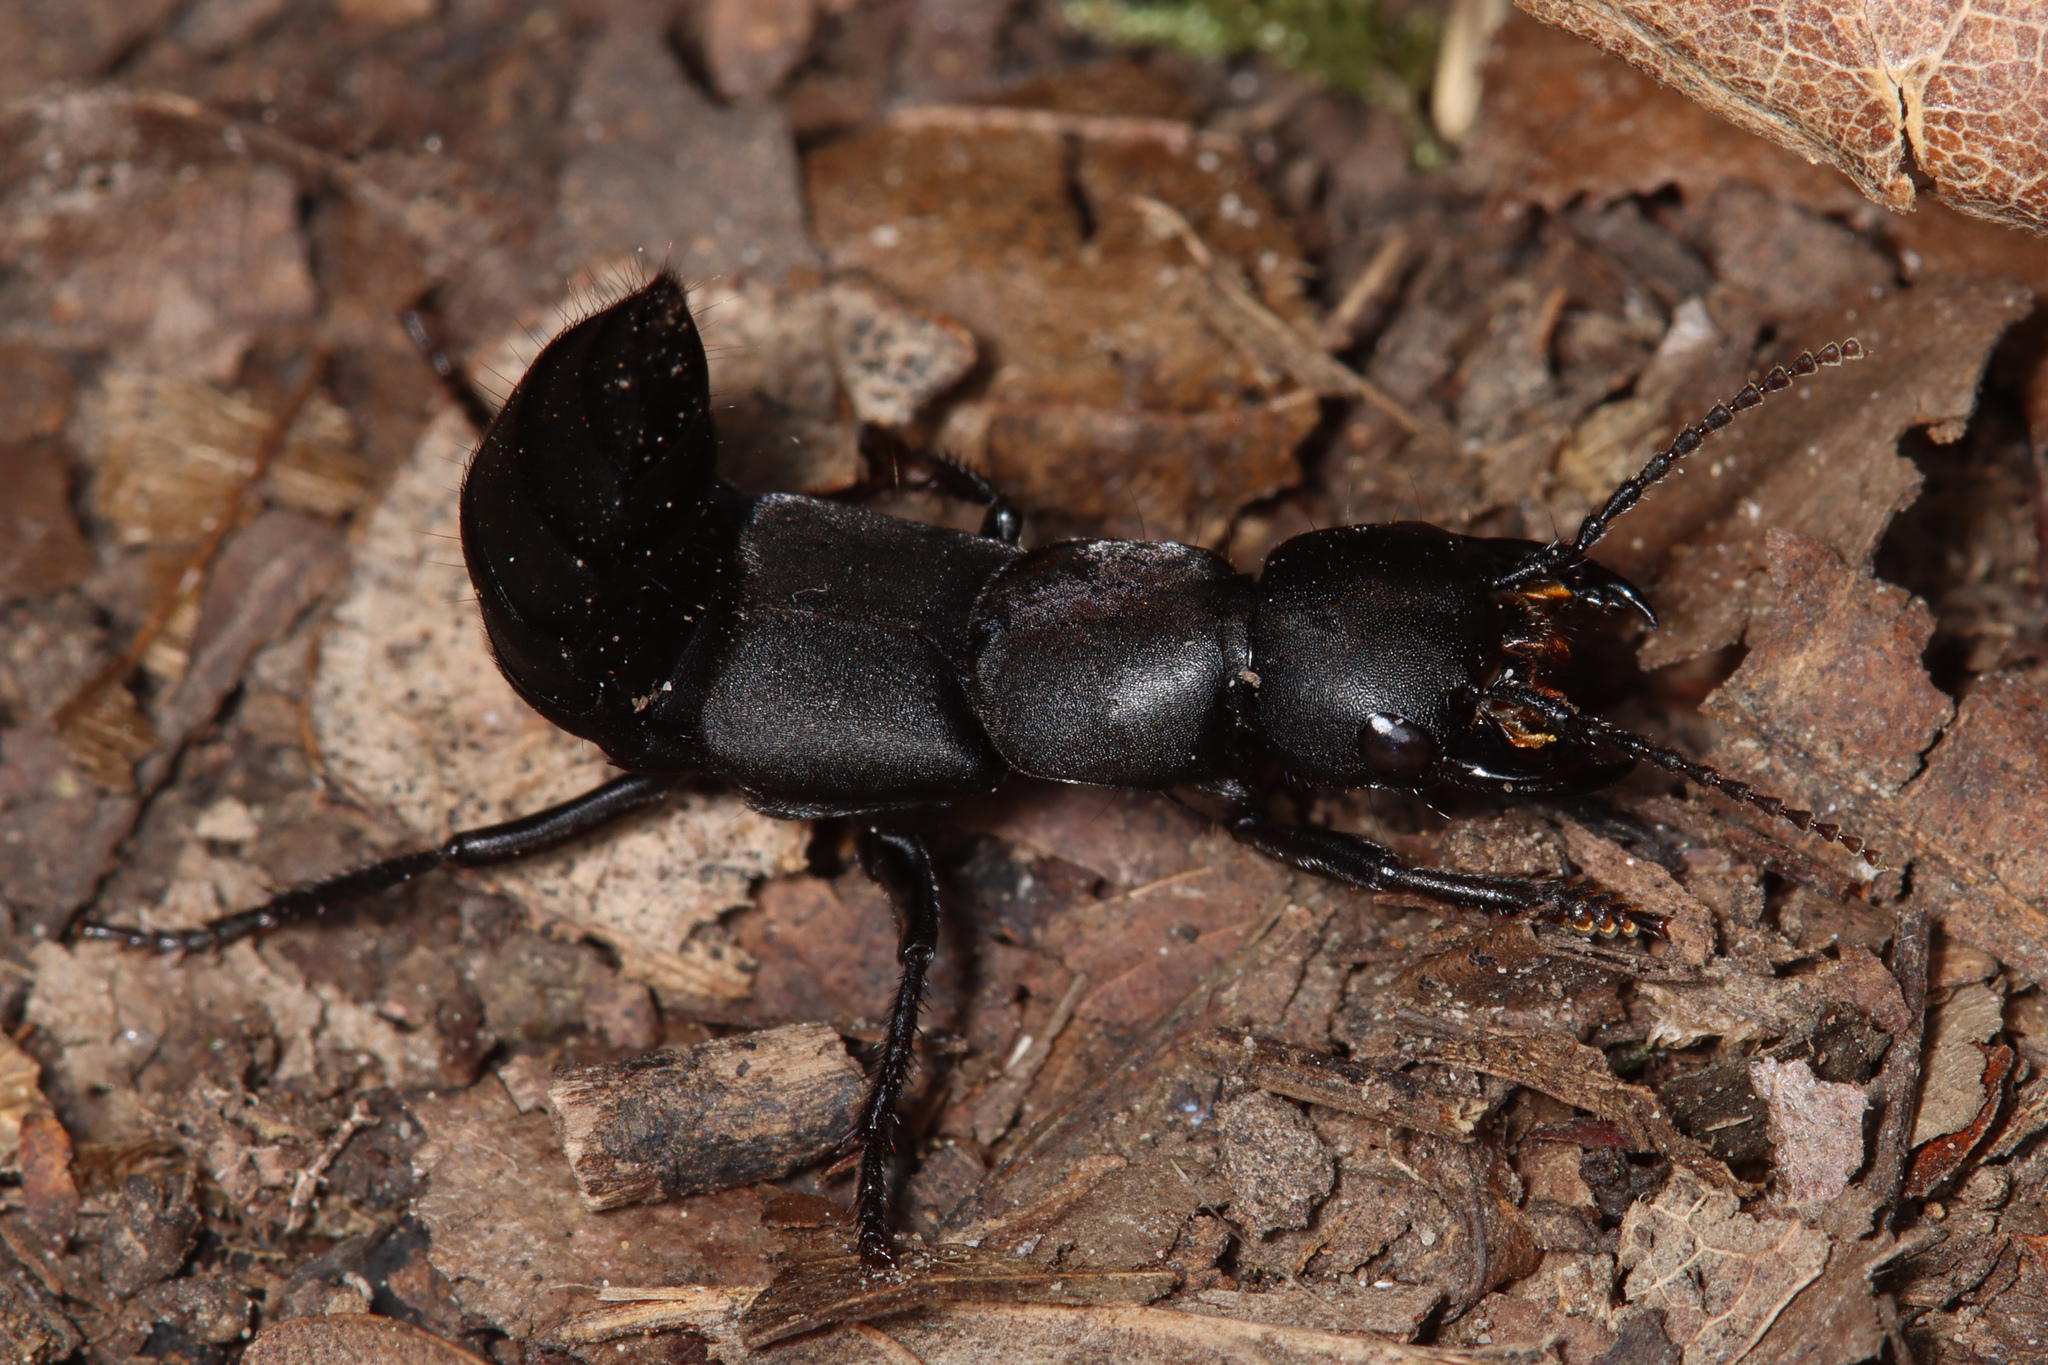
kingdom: Animalia
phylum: Arthropoda
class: Insecta
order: Coleoptera
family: Staphylinidae
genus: Ocypus
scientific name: Ocypus olens
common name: Devil's coach-horse
